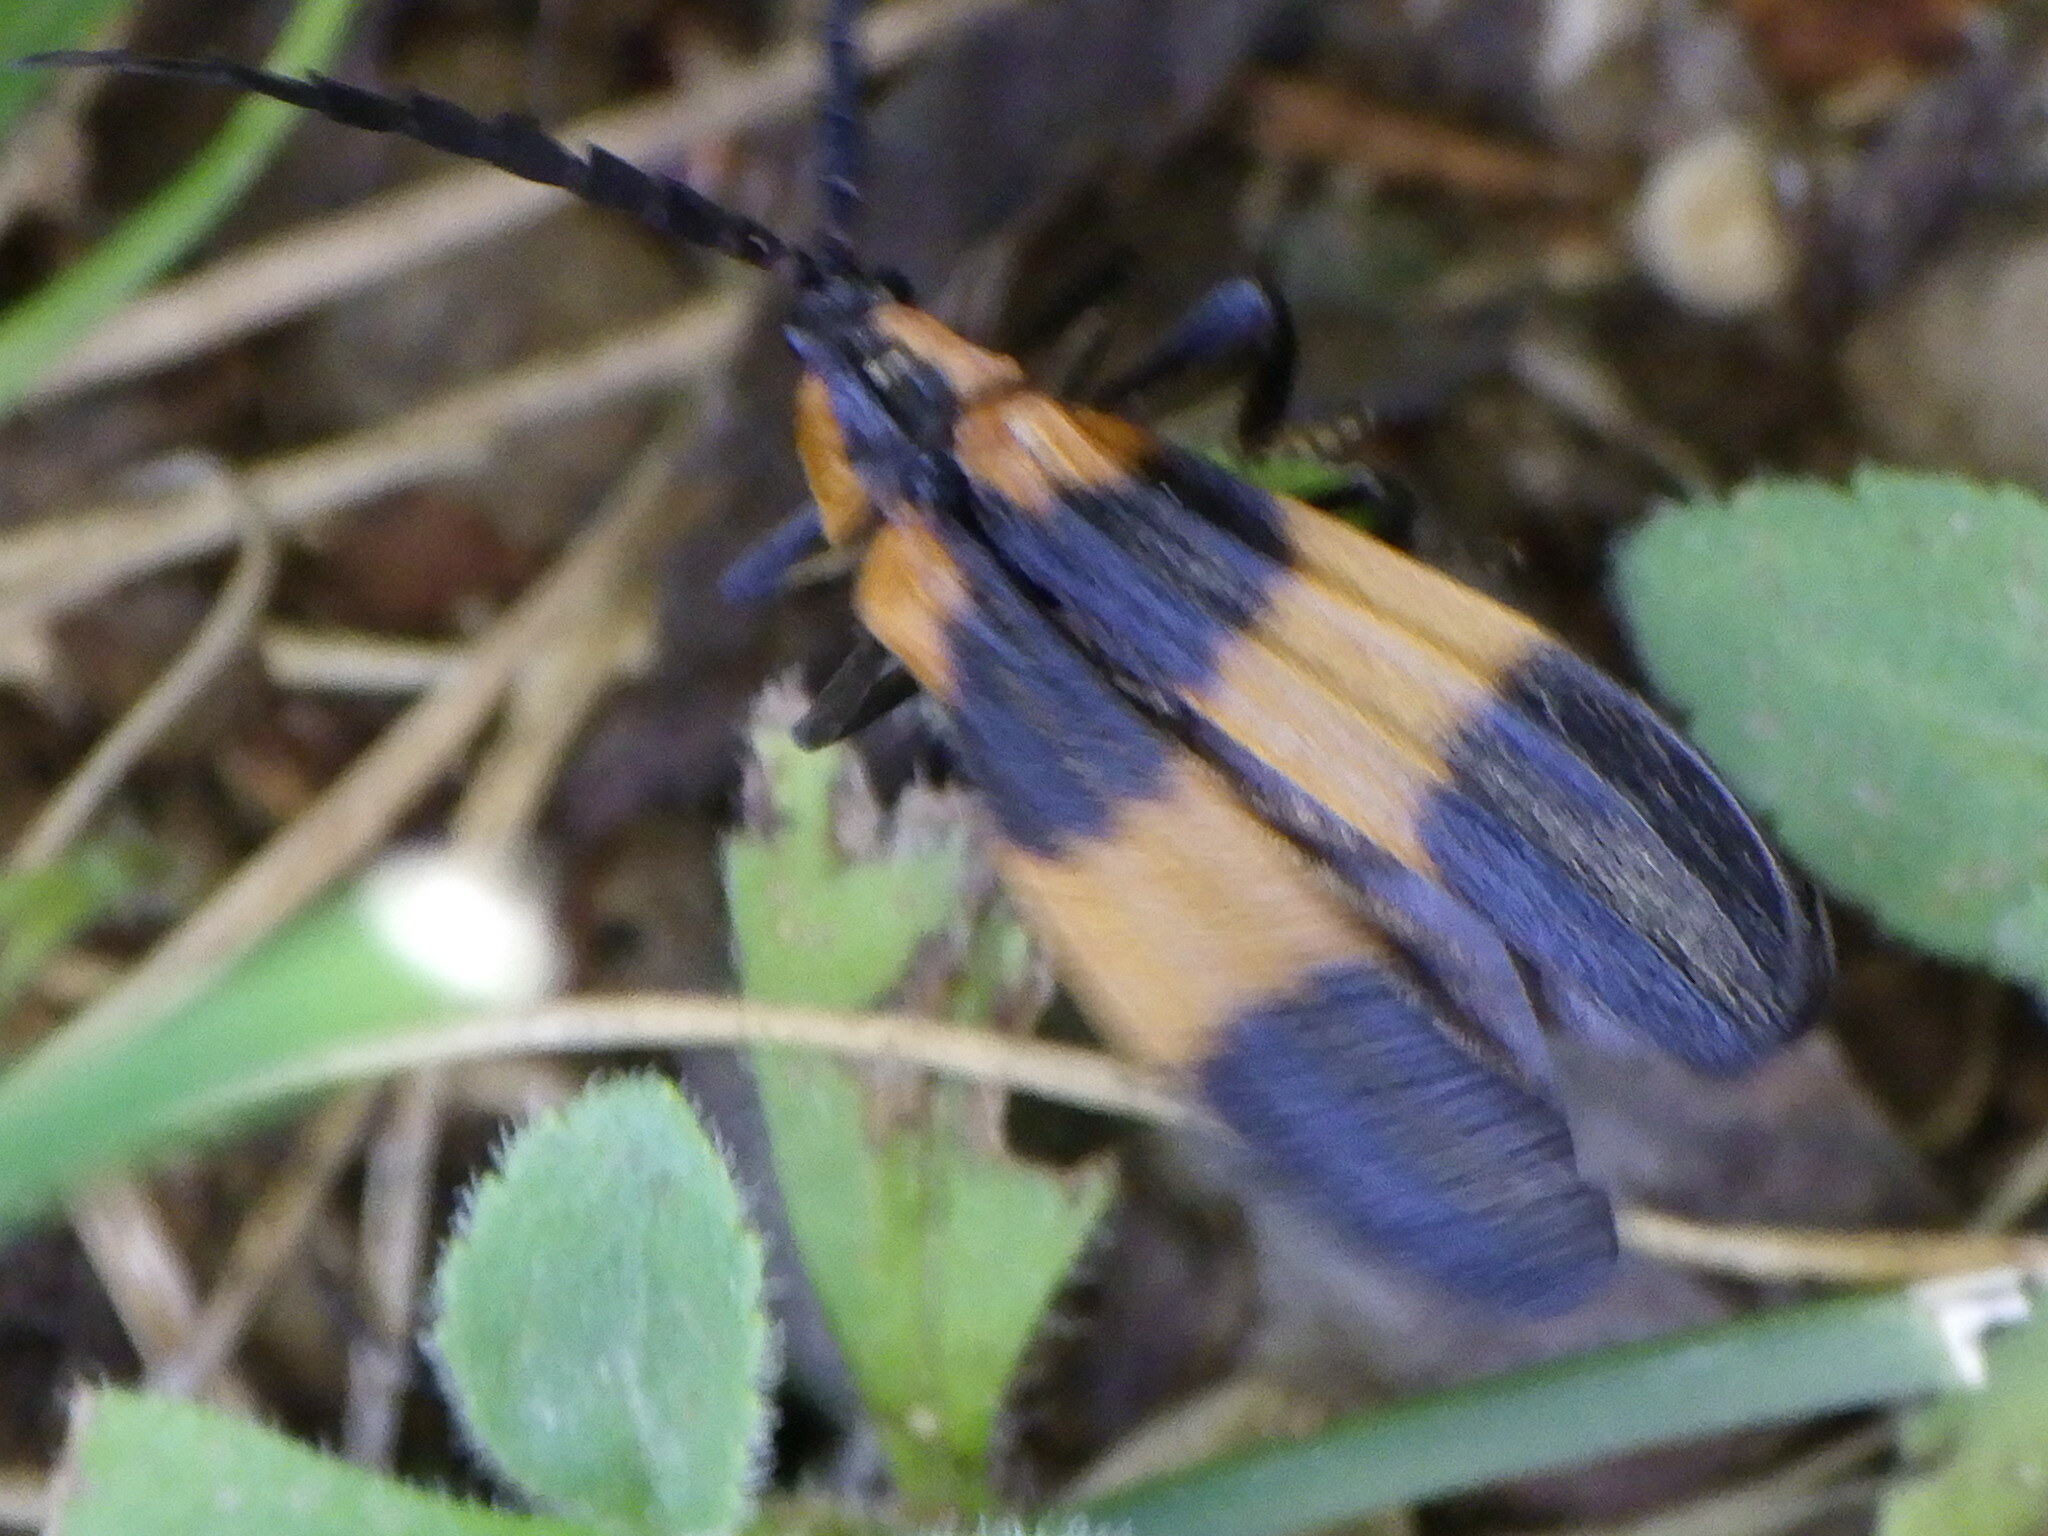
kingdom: Animalia
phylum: Arthropoda
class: Insecta
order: Coleoptera
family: Lycidae
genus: Calopteron
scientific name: Calopteron reticulatum
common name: Banded net-winged beetle
